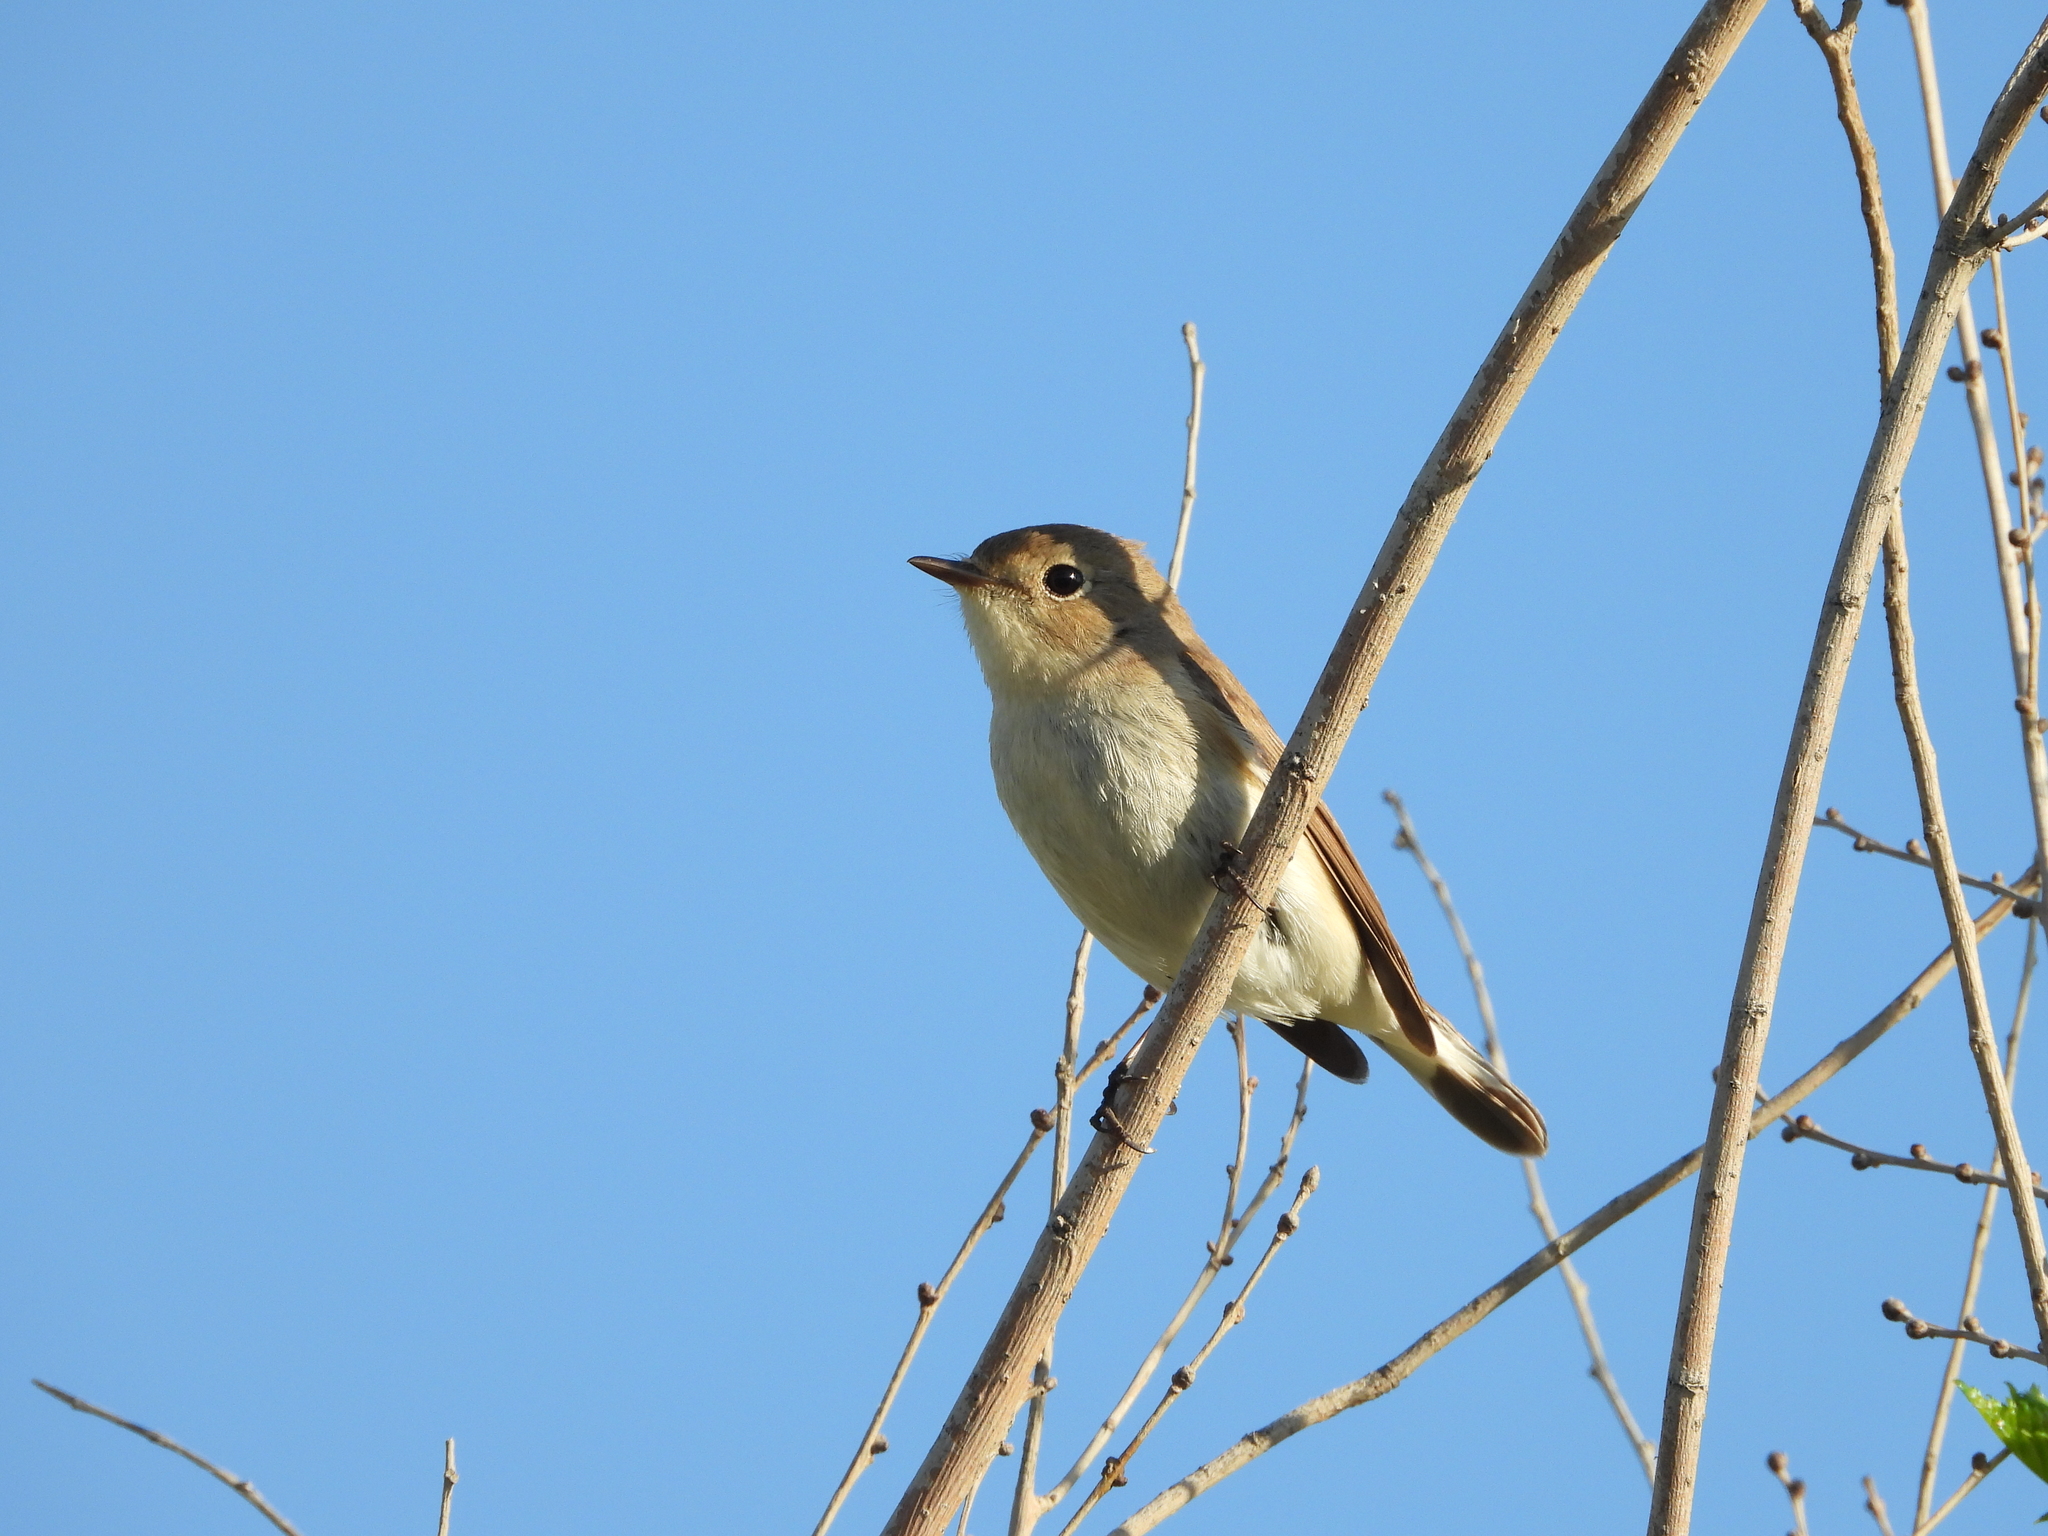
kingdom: Animalia
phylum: Chordata
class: Aves
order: Passeriformes
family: Muscicapidae
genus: Ficedula
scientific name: Ficedula parva
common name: Red-breasted flycatcher
